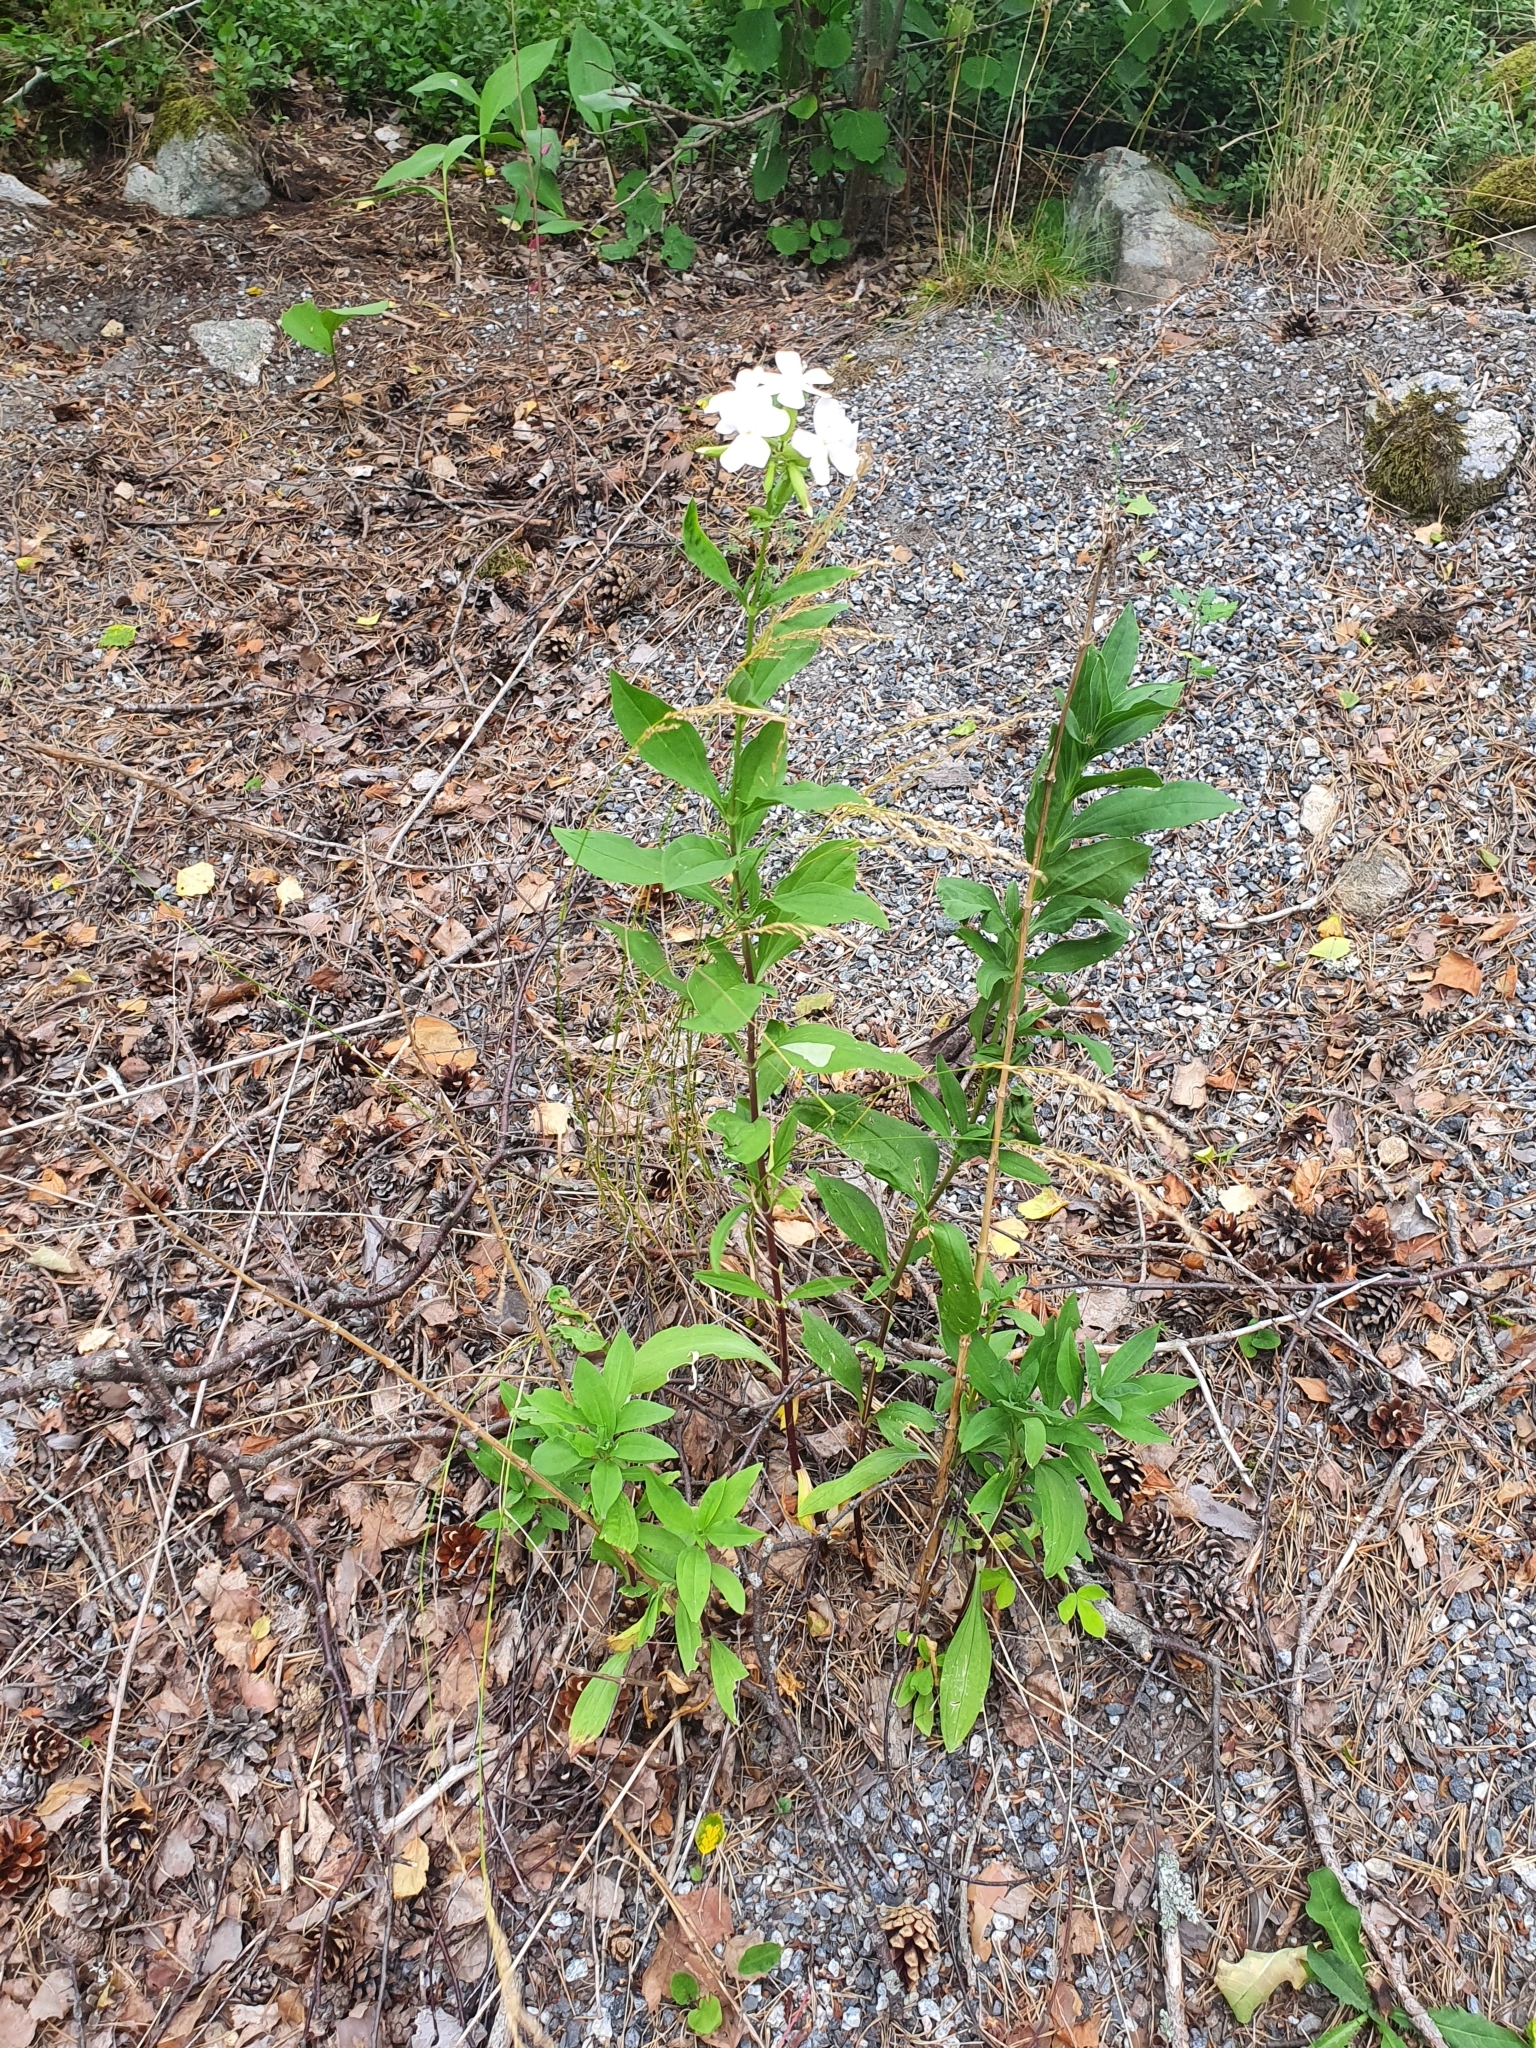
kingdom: Plantae
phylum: Tracheophyta
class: Magnoliopsida
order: Caryophyllales
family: Caryophyllaceae
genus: Saponaria
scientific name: Saponaria officinalis
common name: Soapwort
